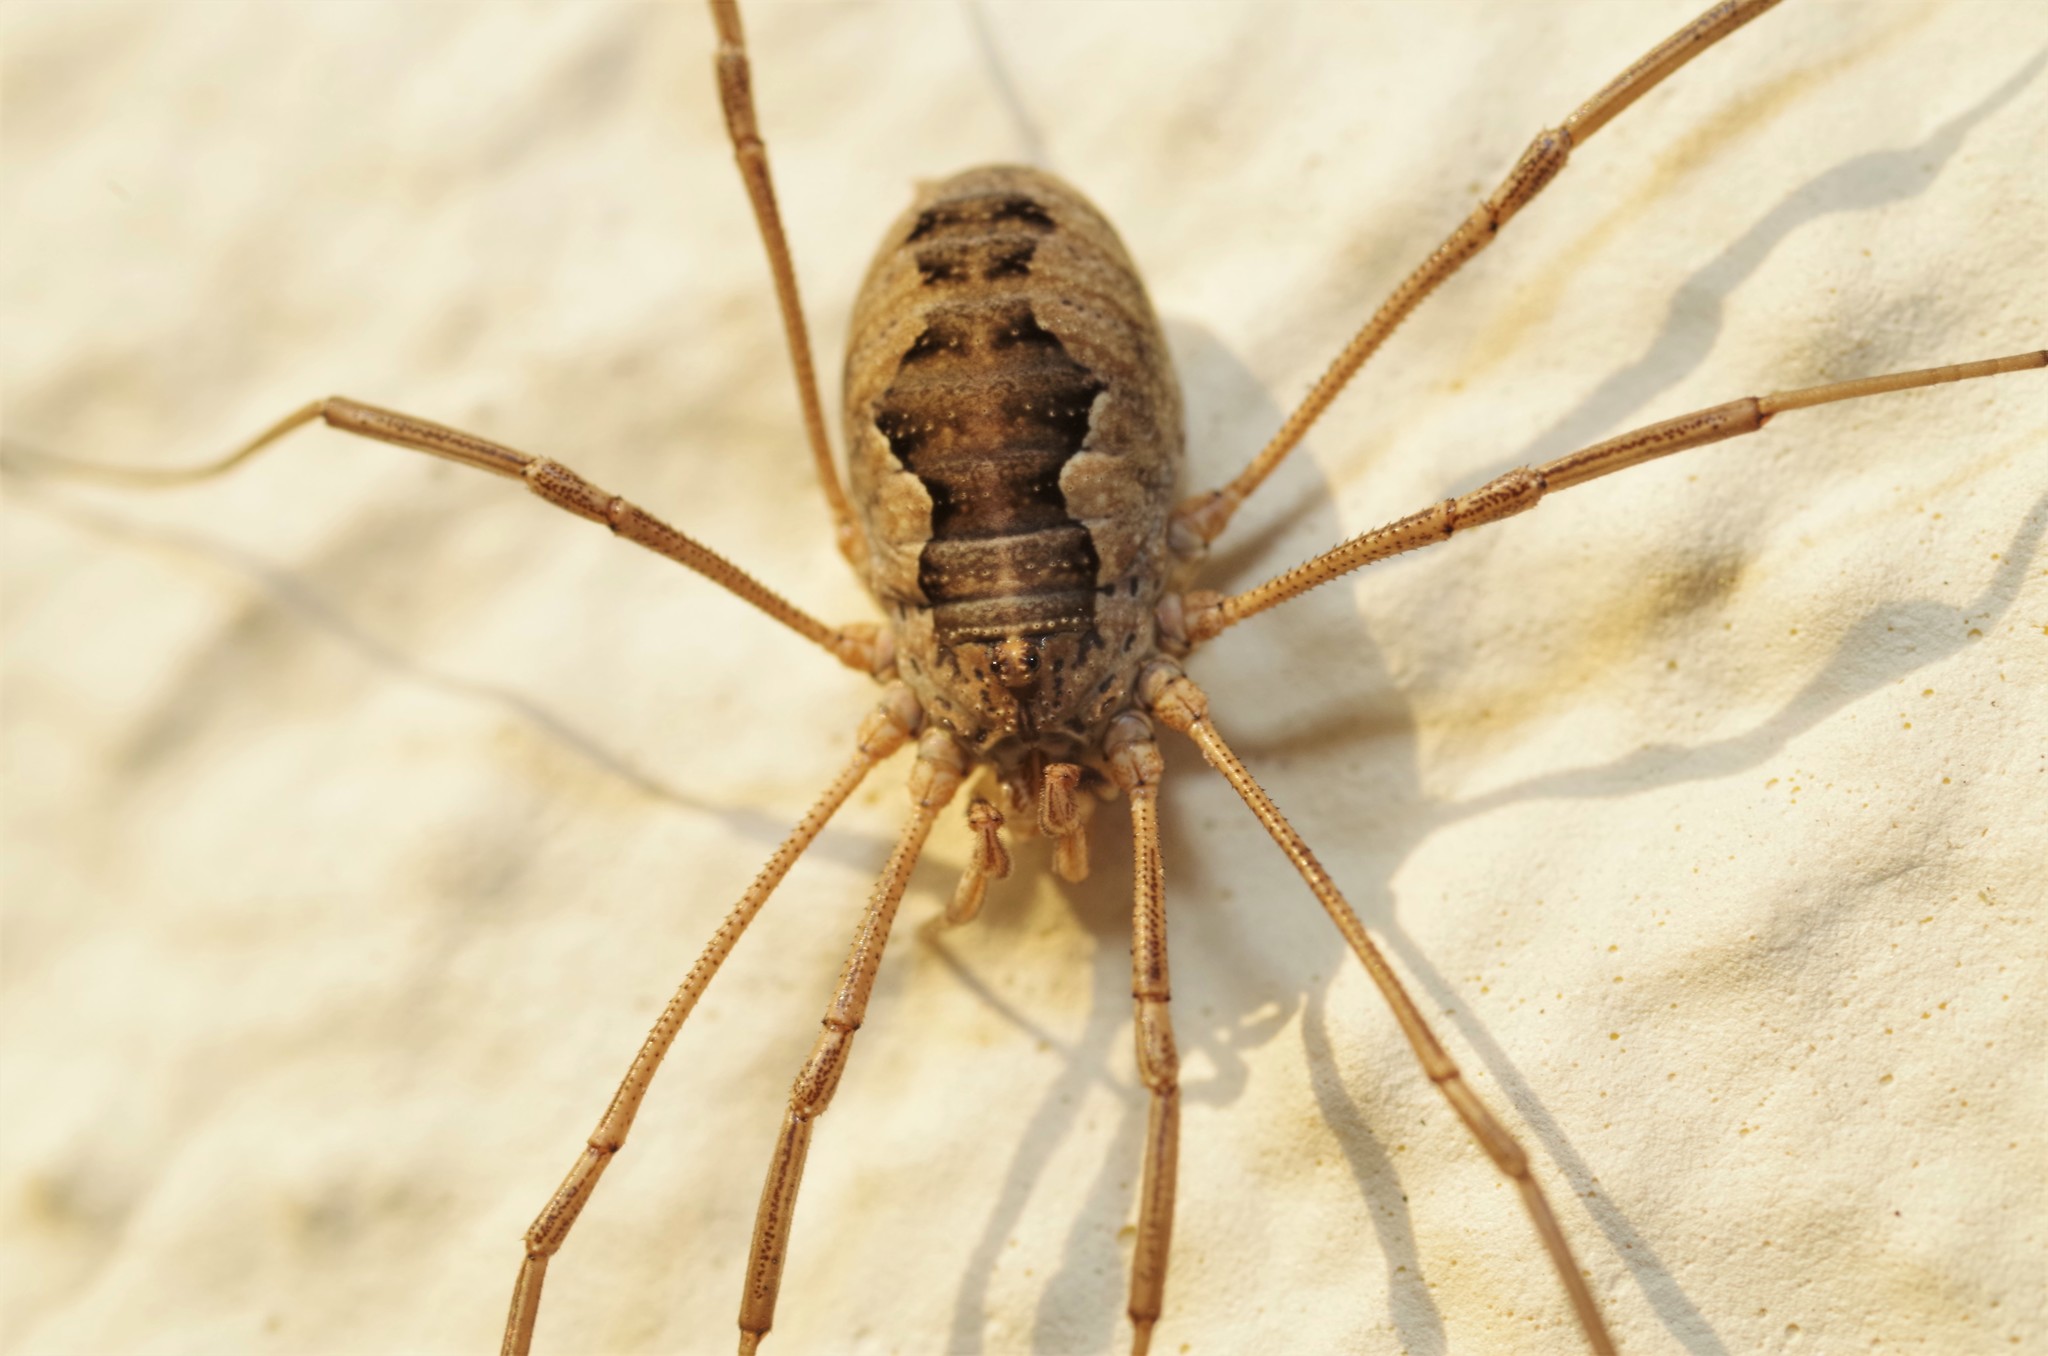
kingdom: Animalia
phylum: Arthropoda
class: Arachnida
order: Opiliones
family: Phalangiidae
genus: Phalangium
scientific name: Phalangium opilio
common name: Daddy longleg
